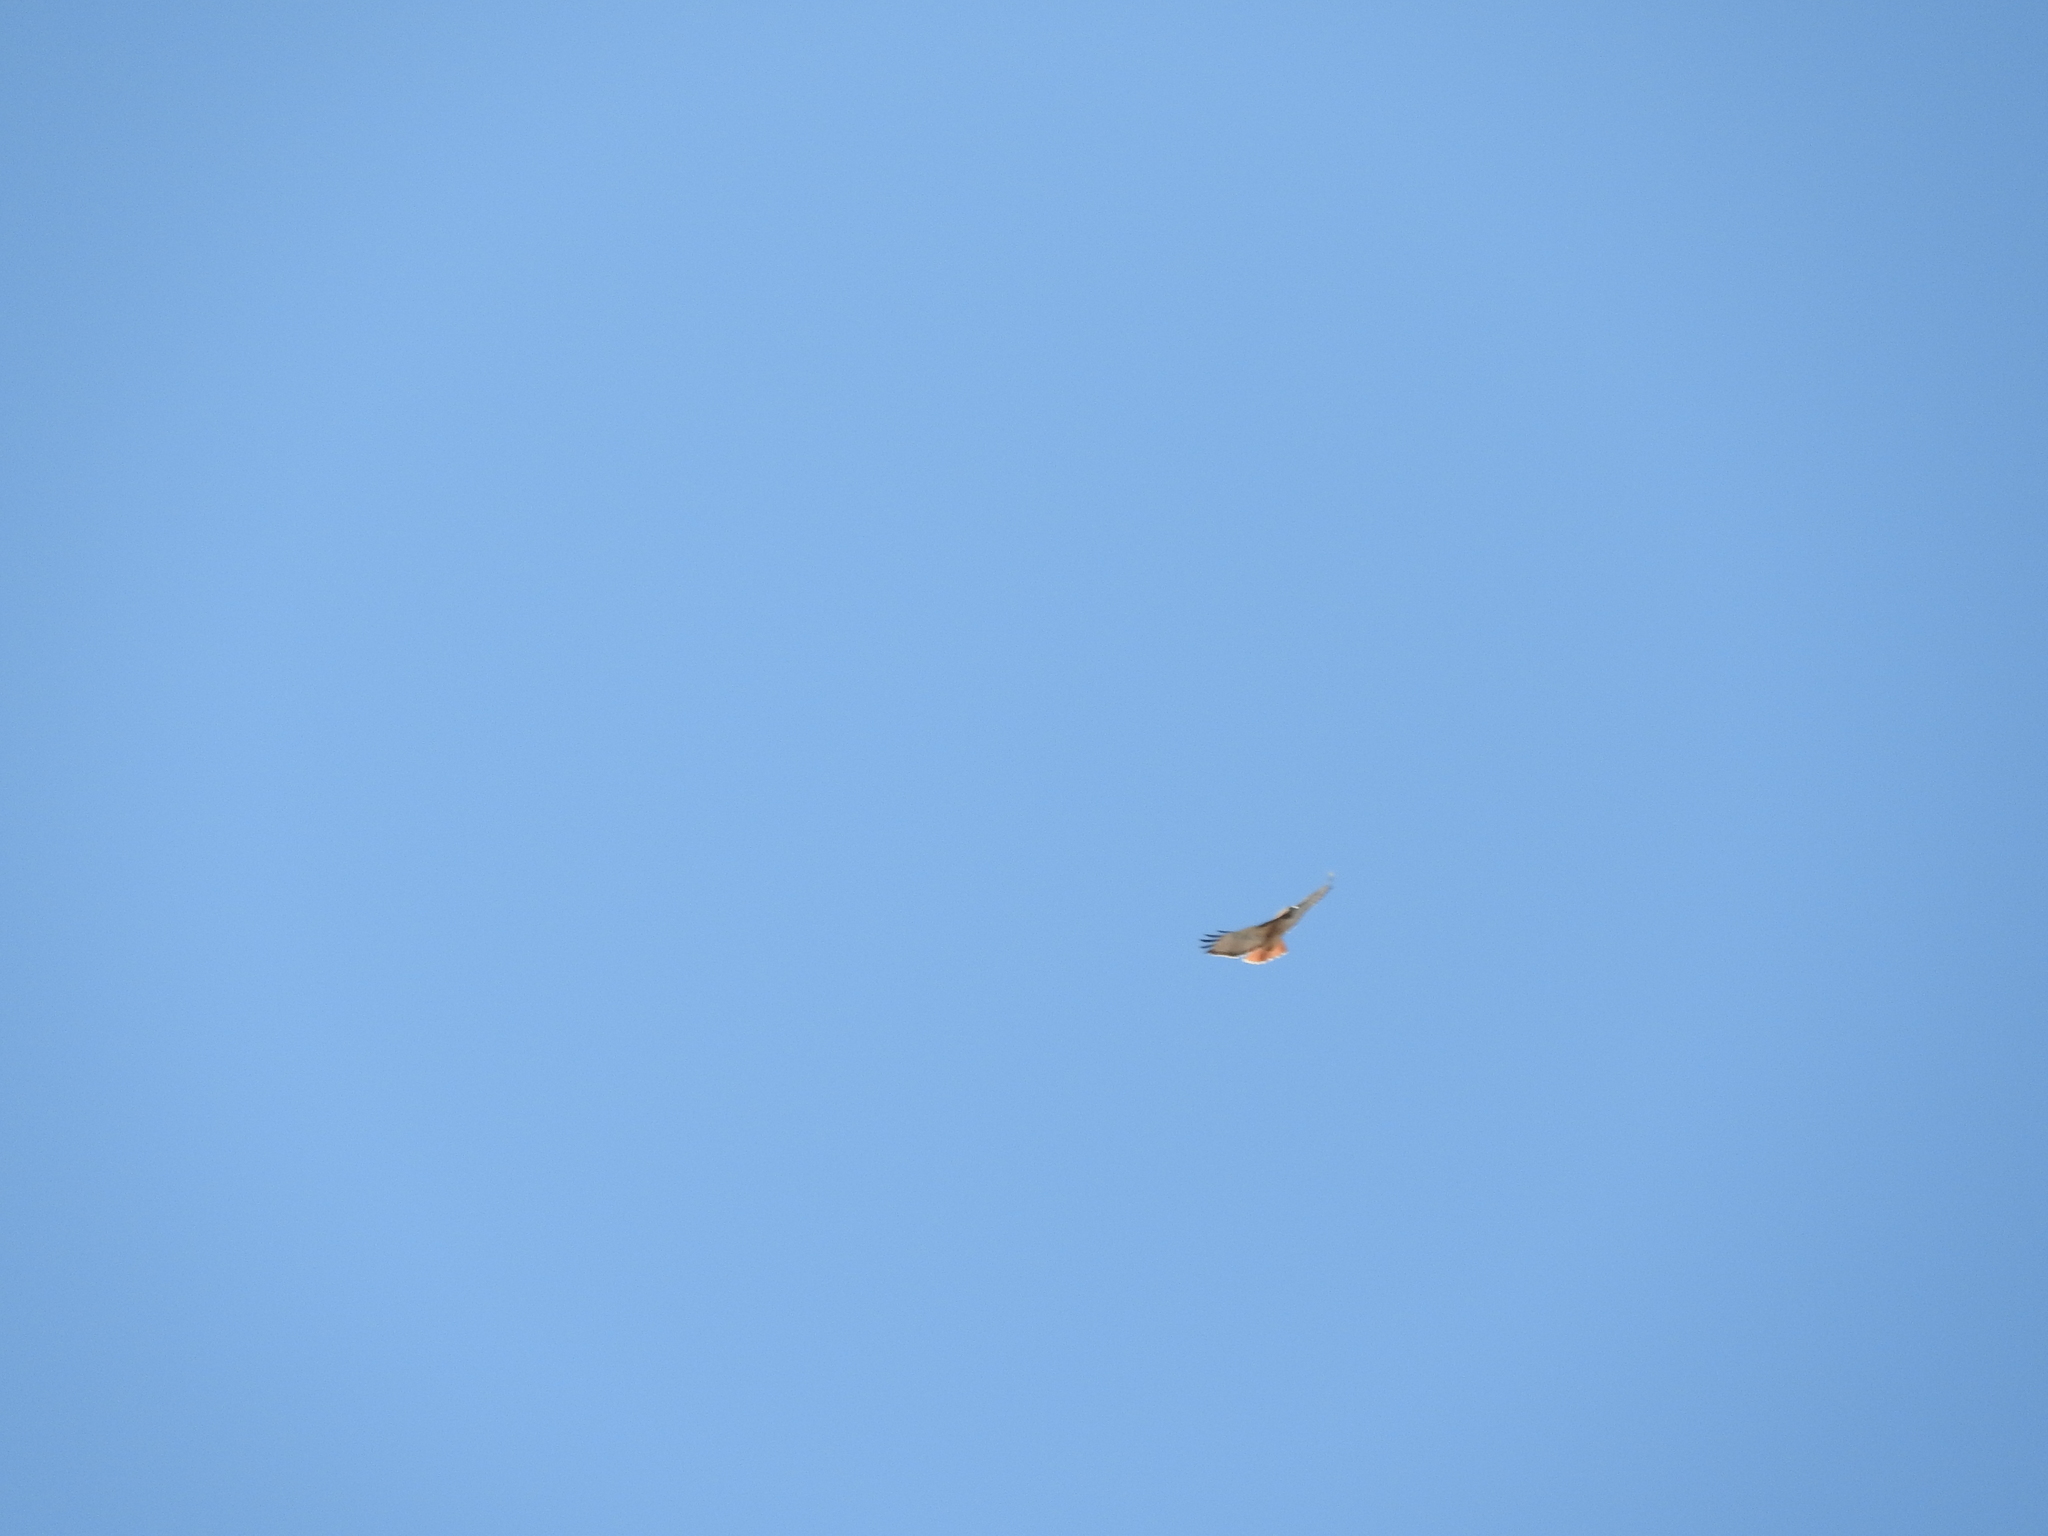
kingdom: Animalia
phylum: Chordata
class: Aves
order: Accipitriformes
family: Accipitridae
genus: Buteo
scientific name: Buteo jamaicensis
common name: Red-tailed hawk
